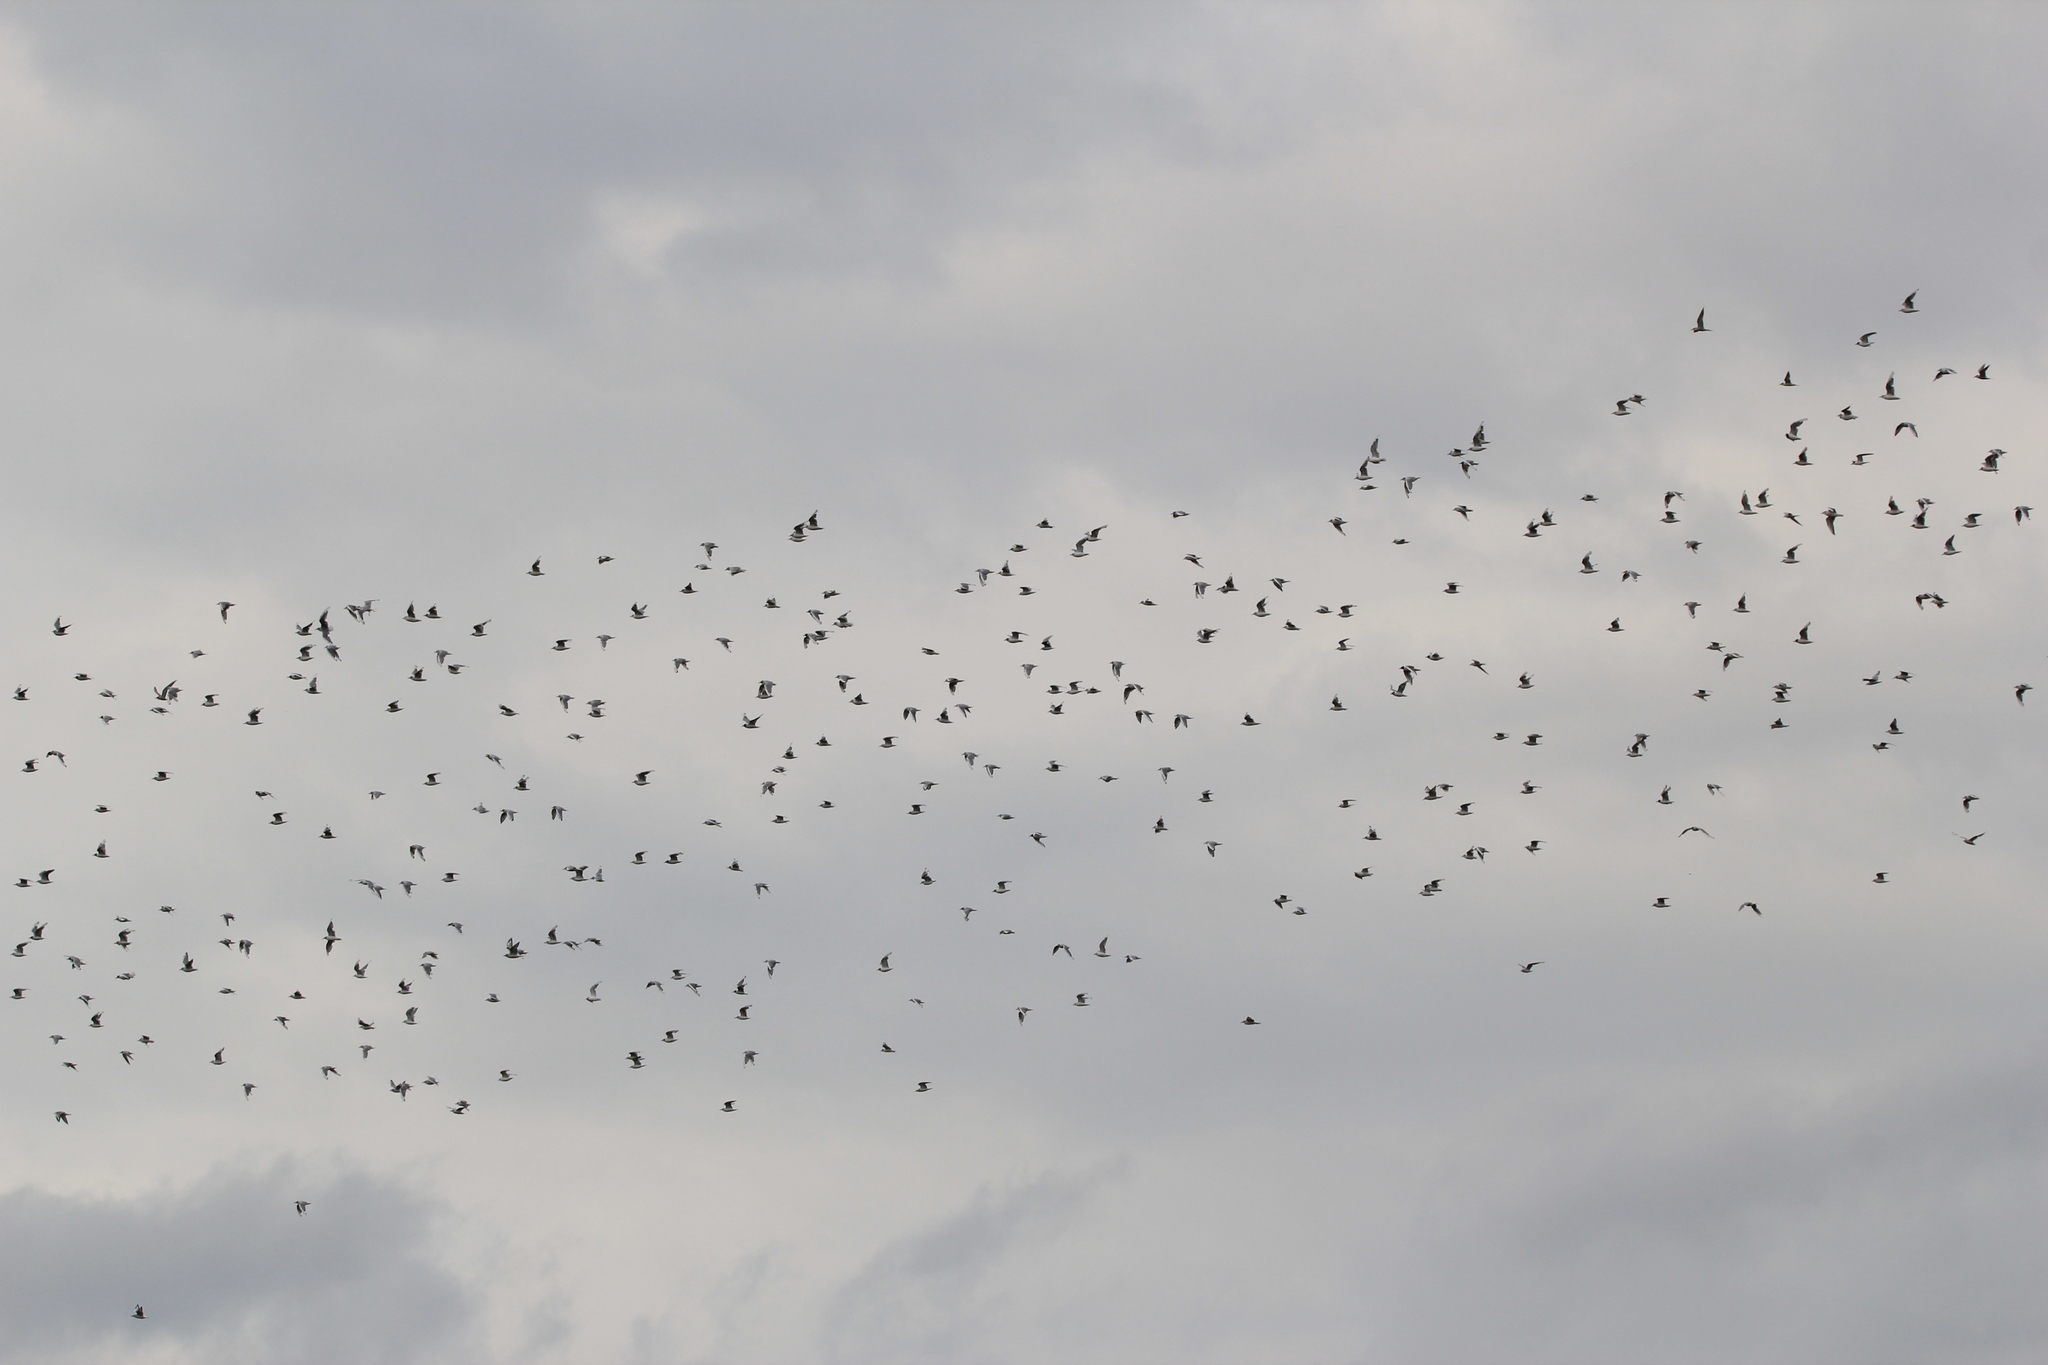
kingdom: Animalia
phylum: Chordata
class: Aves
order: Charadriiformes
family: Laridae
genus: Chroicocephalus
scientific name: Chroicocephalus philadelphia
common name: Bonaparte's gull
